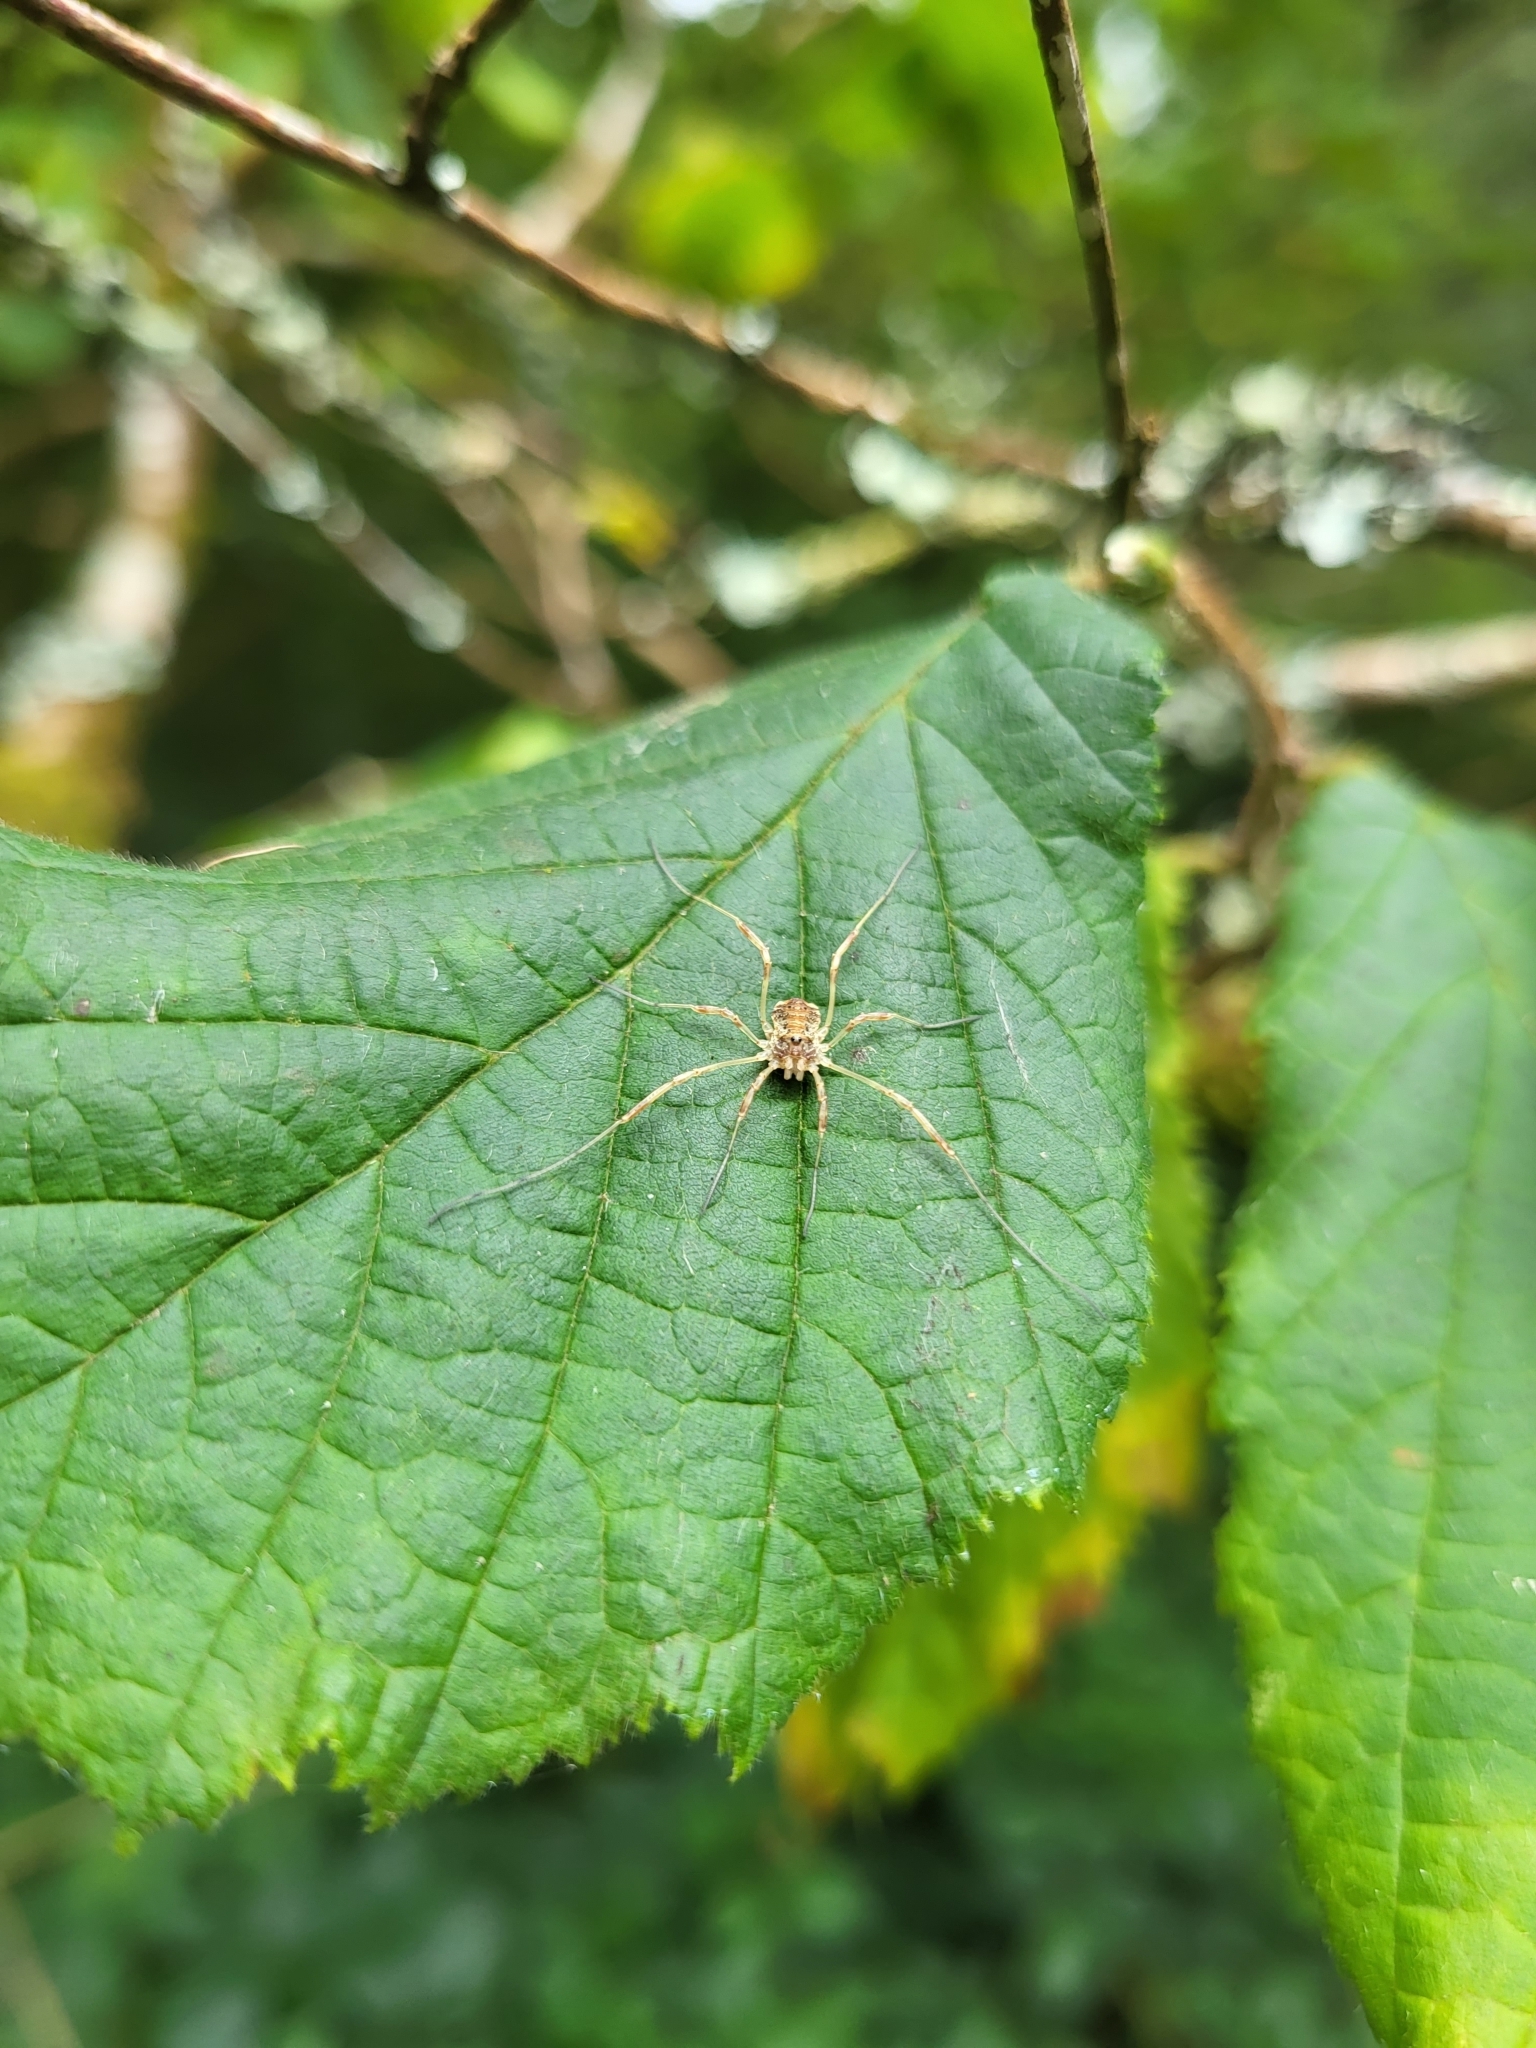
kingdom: Animalia
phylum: Arthropoda
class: Arachnida
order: Opiliones
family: Phalangiidae
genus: Paroligolophus
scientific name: Paroligolophus agrestis
